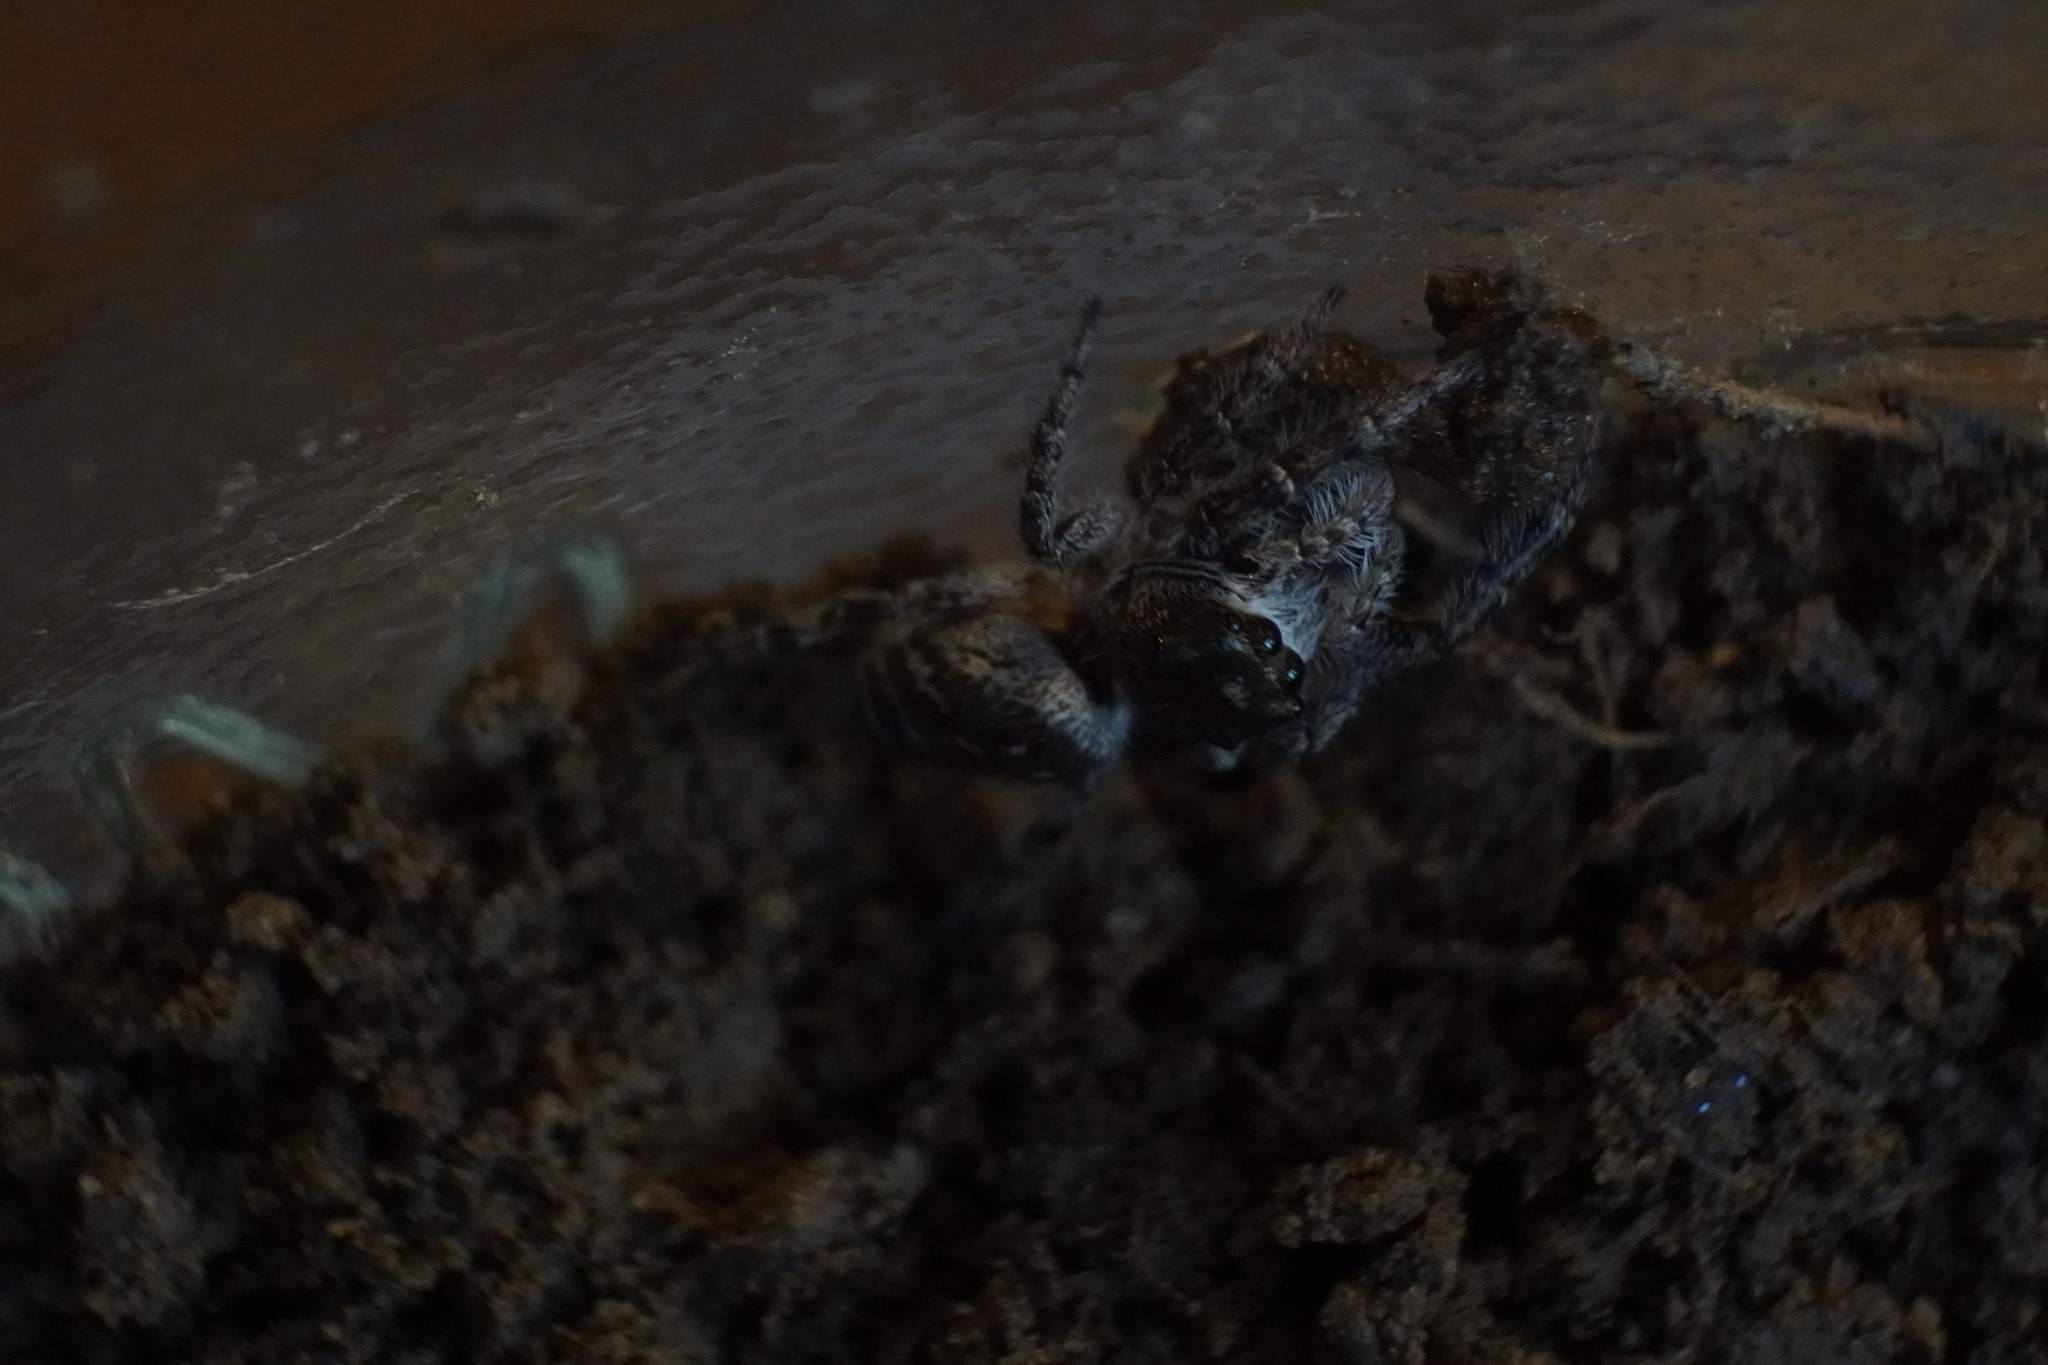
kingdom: Animalia
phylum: Arthropoda
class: Arachnida
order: Araneae
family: Salticidae
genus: Eris
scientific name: Eris militaris
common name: Bronze jumper
